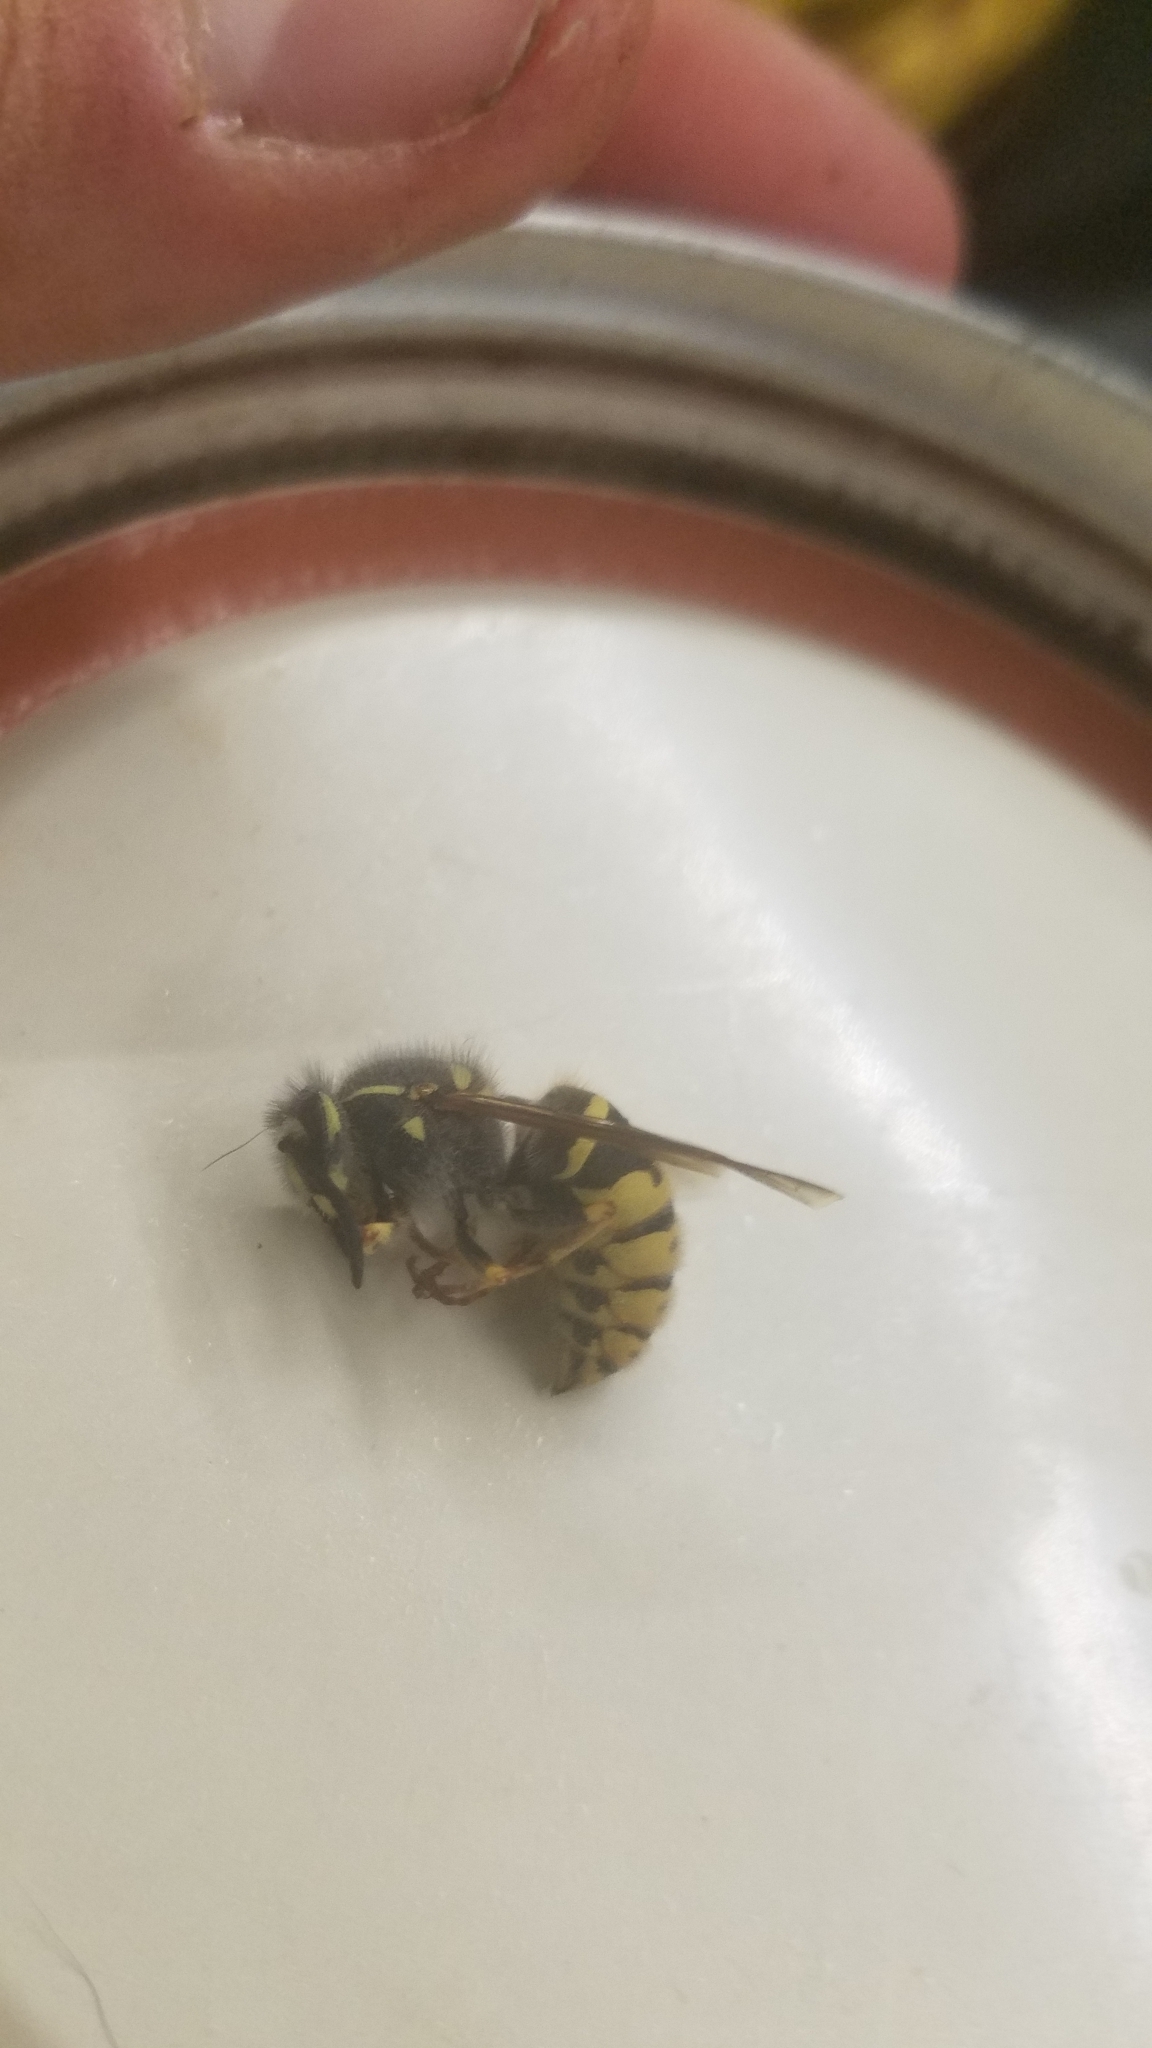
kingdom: Animalia
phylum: Arthropoda
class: Insecta
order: Hymenoptera
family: Vespidae
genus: Vespula
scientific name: Vespula alascensis
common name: Alaska yellowjacket
